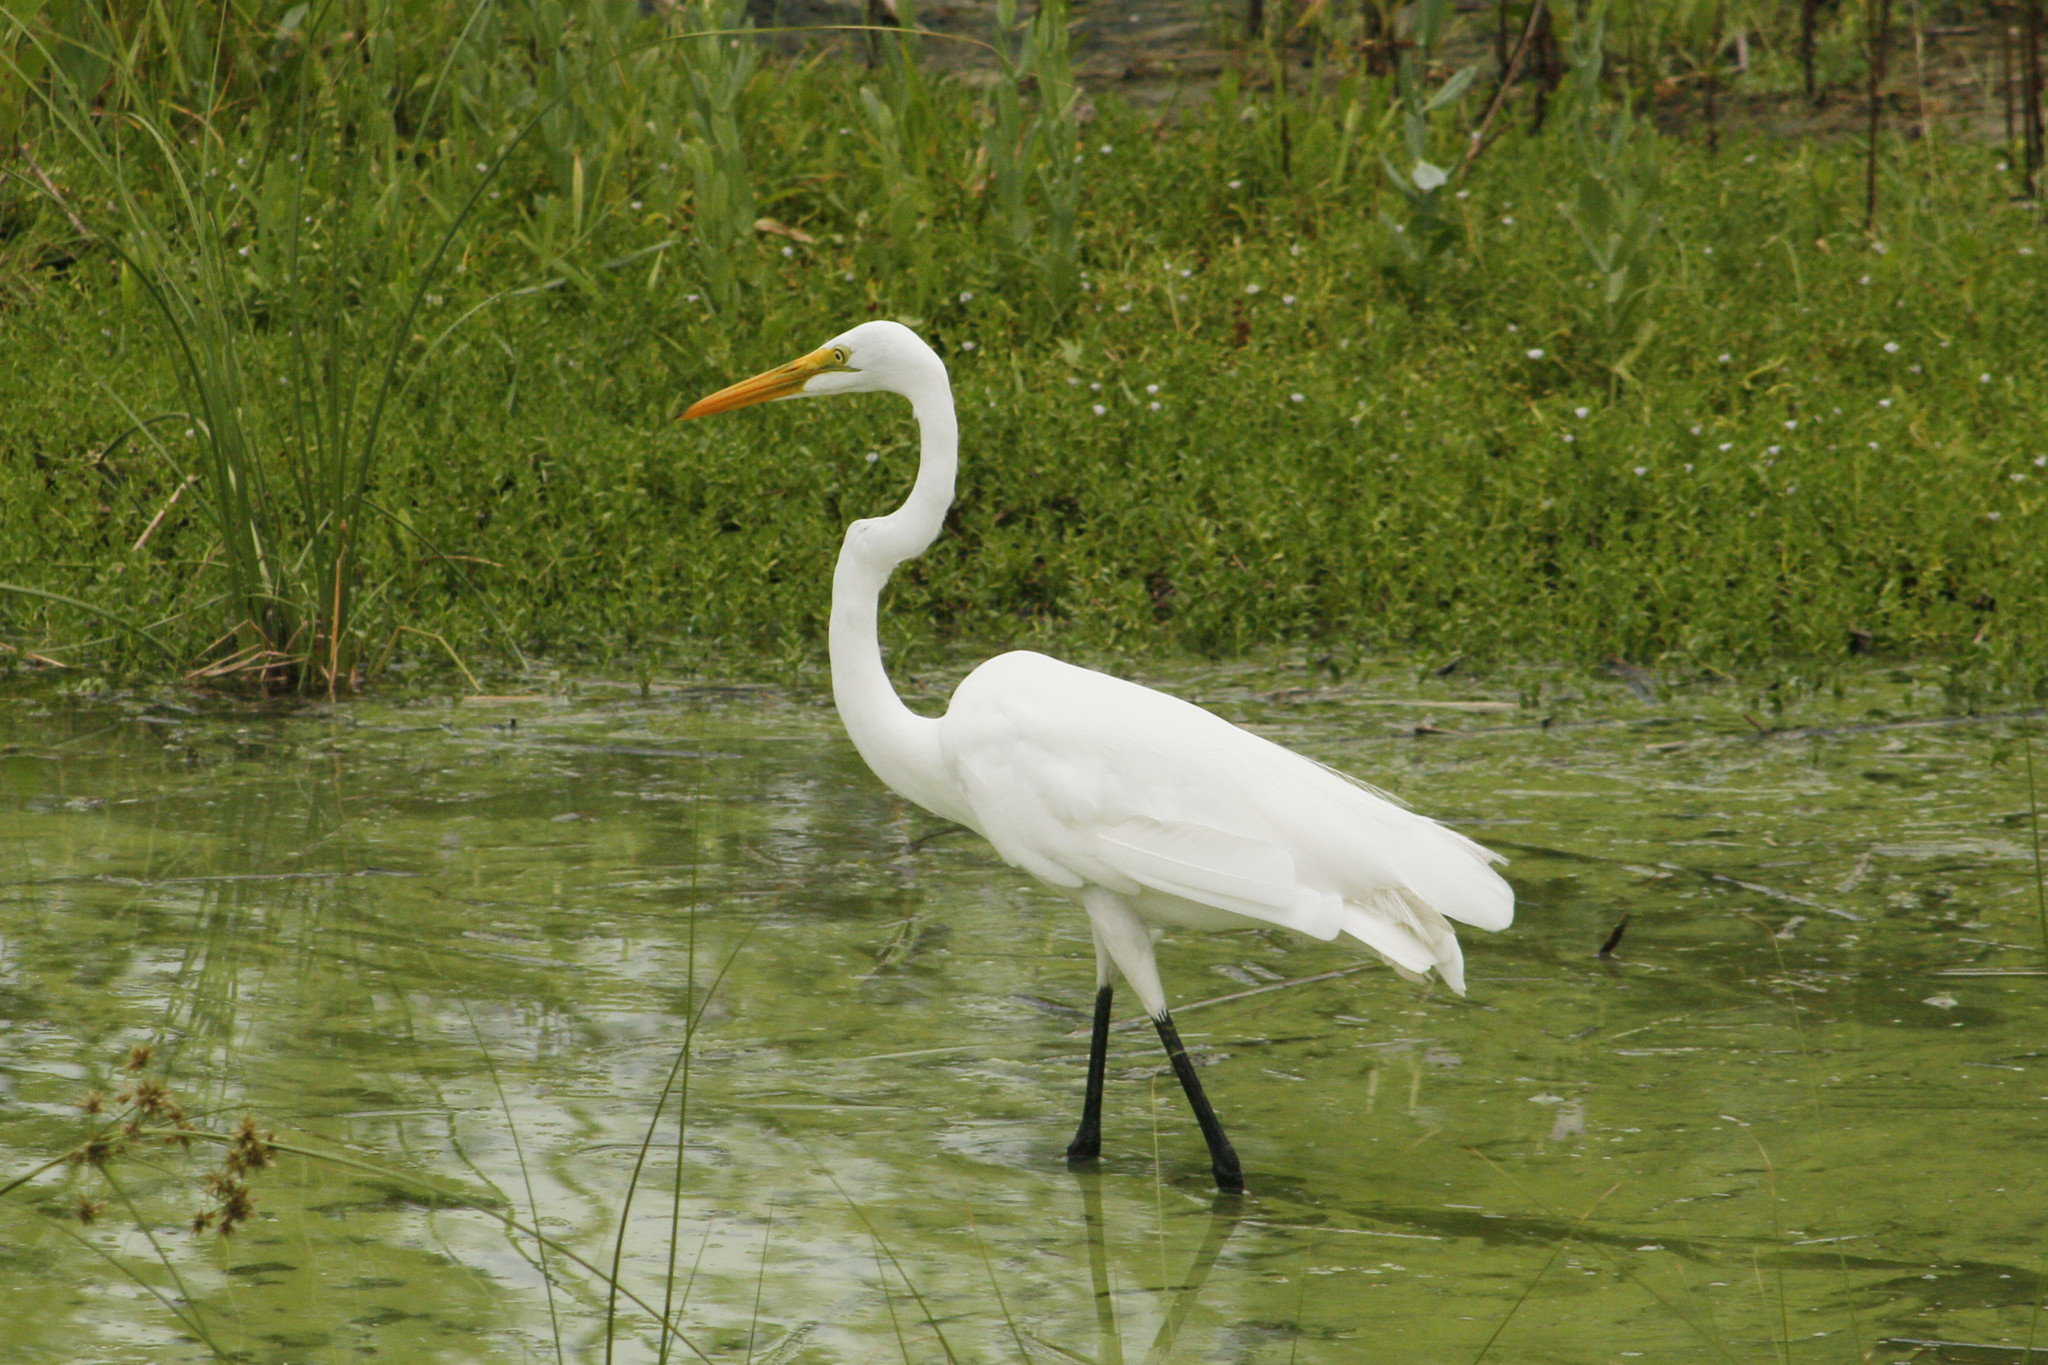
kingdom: Animalia
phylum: Chordata
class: Aves
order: Pelecaniformes
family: Ardeidae
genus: Ardea
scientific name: Ardea alba
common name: Great egret
